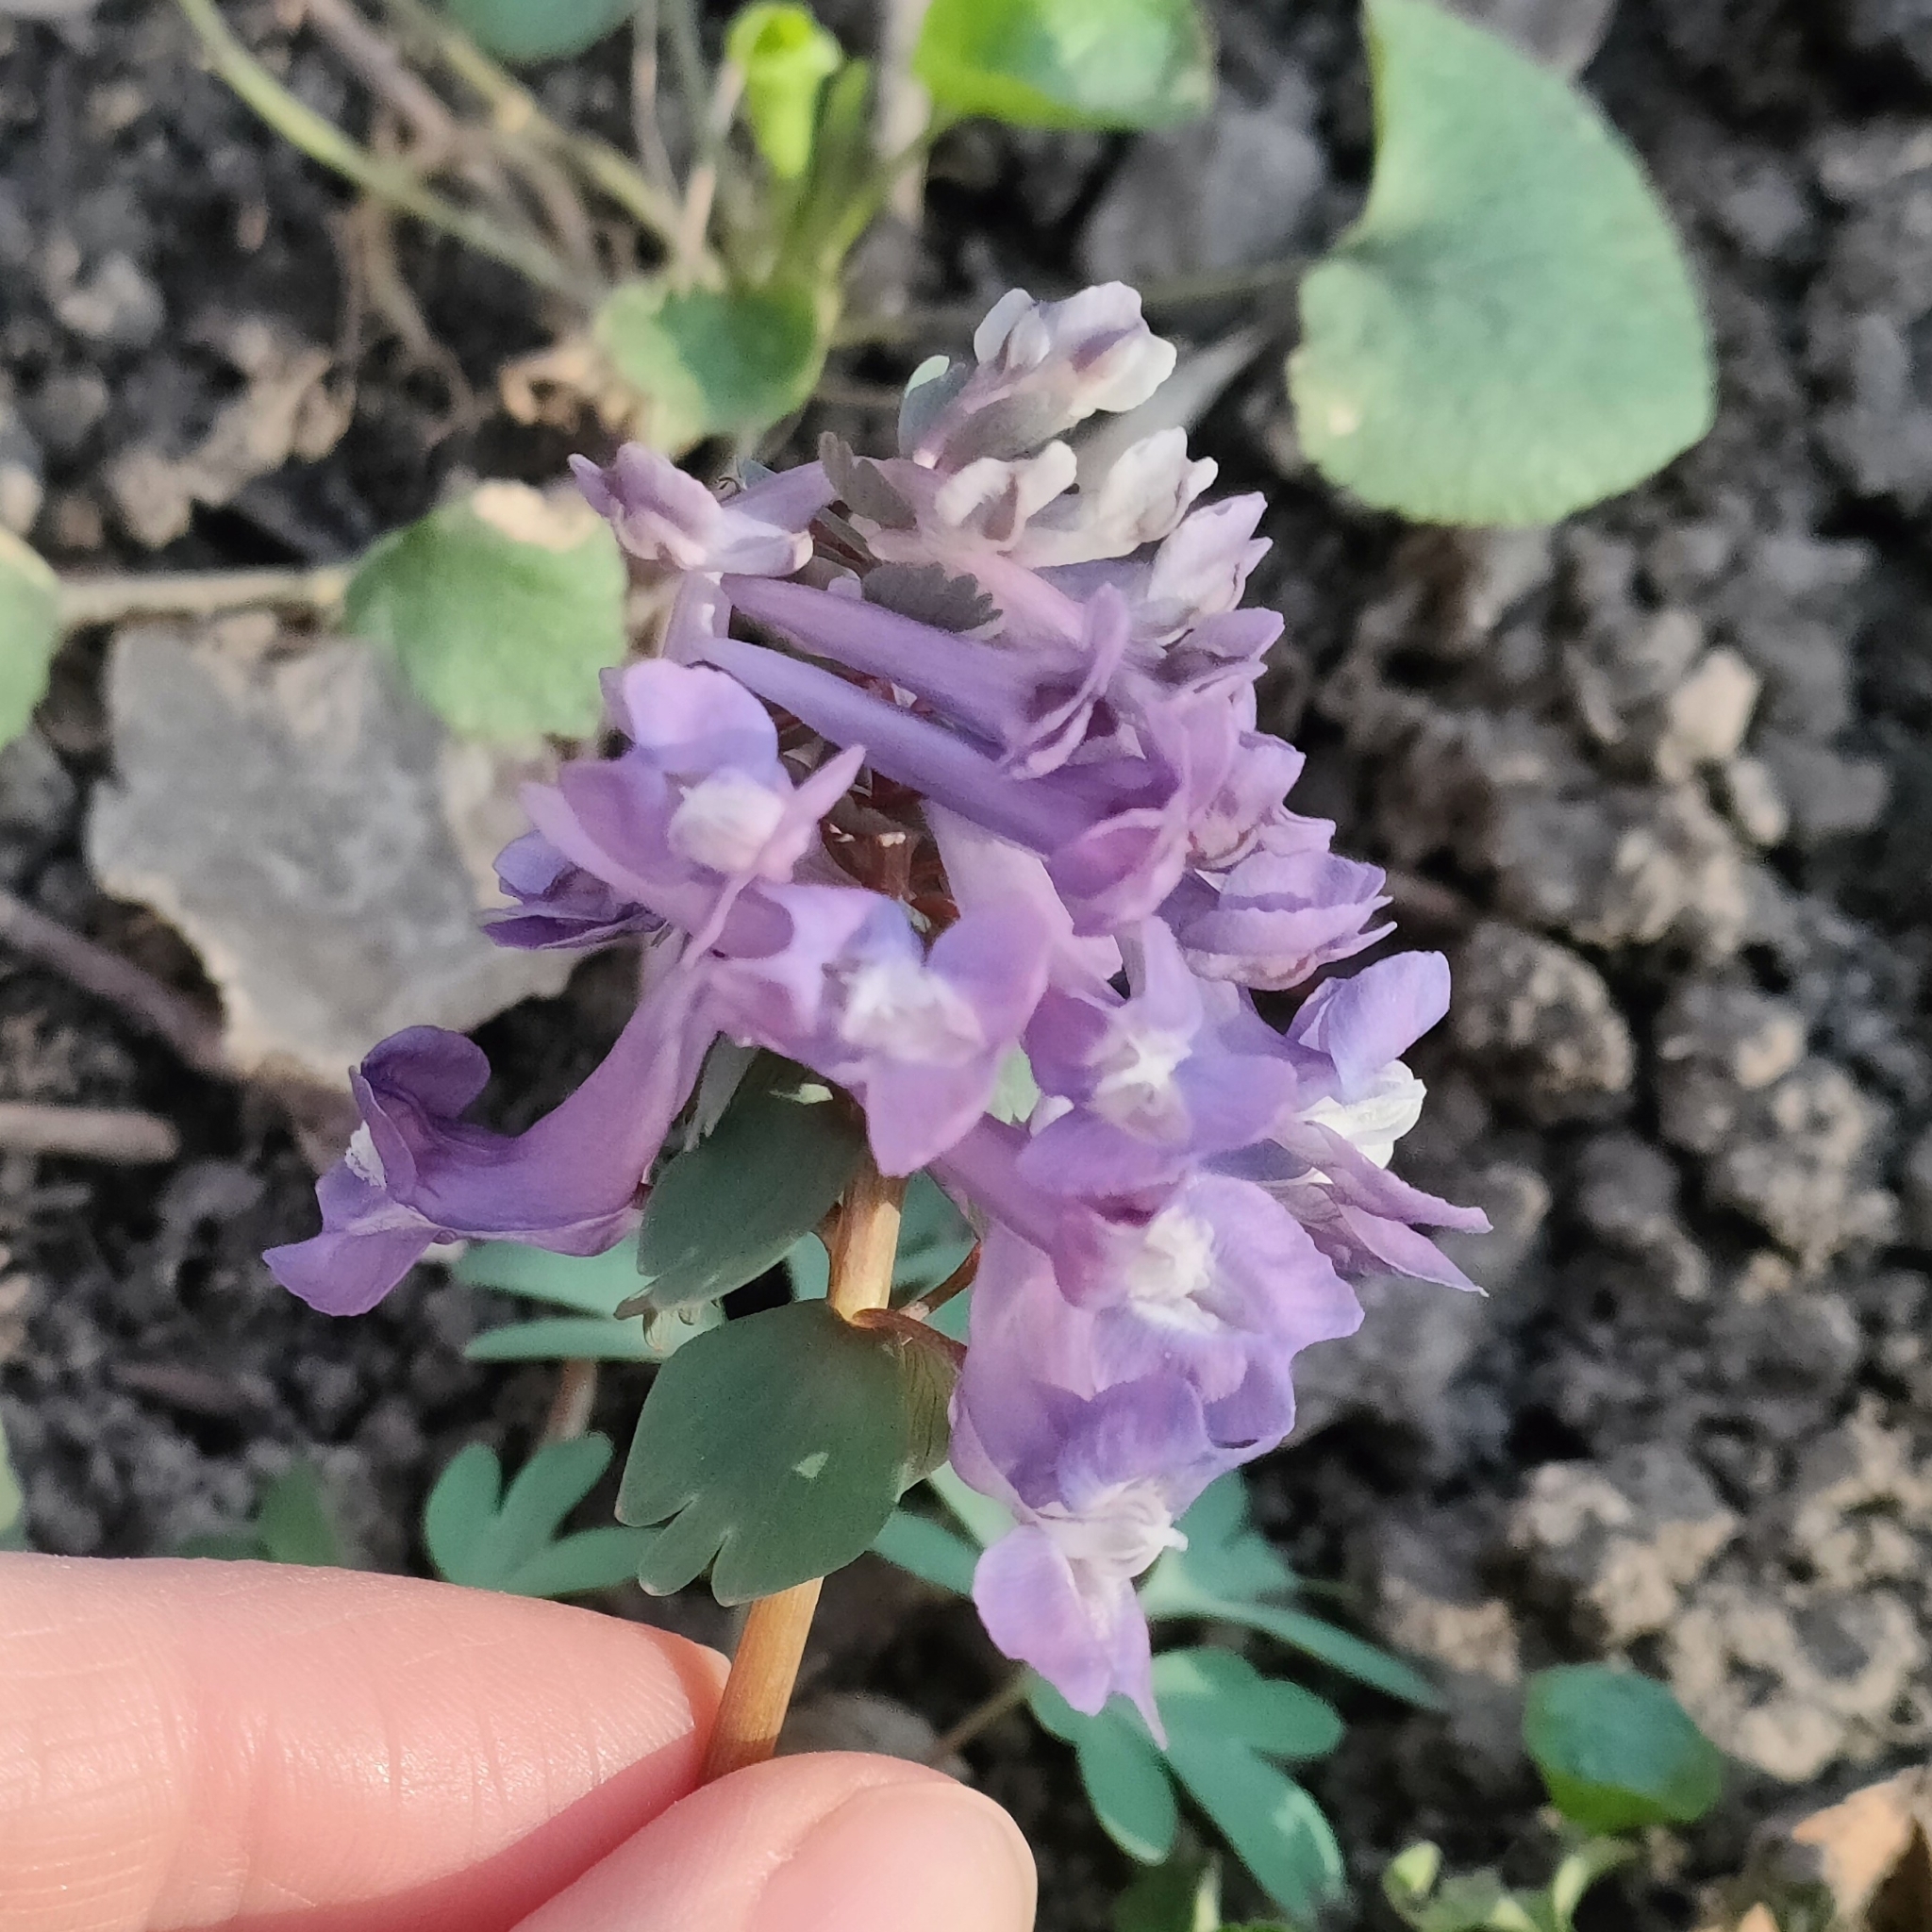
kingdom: Plantae
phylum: Tracheophyta
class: Magnoliopsida
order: Ranunculales
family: Papaveraceae
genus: Corydalis
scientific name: Corydalis solida
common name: Bird-in-a-bush
